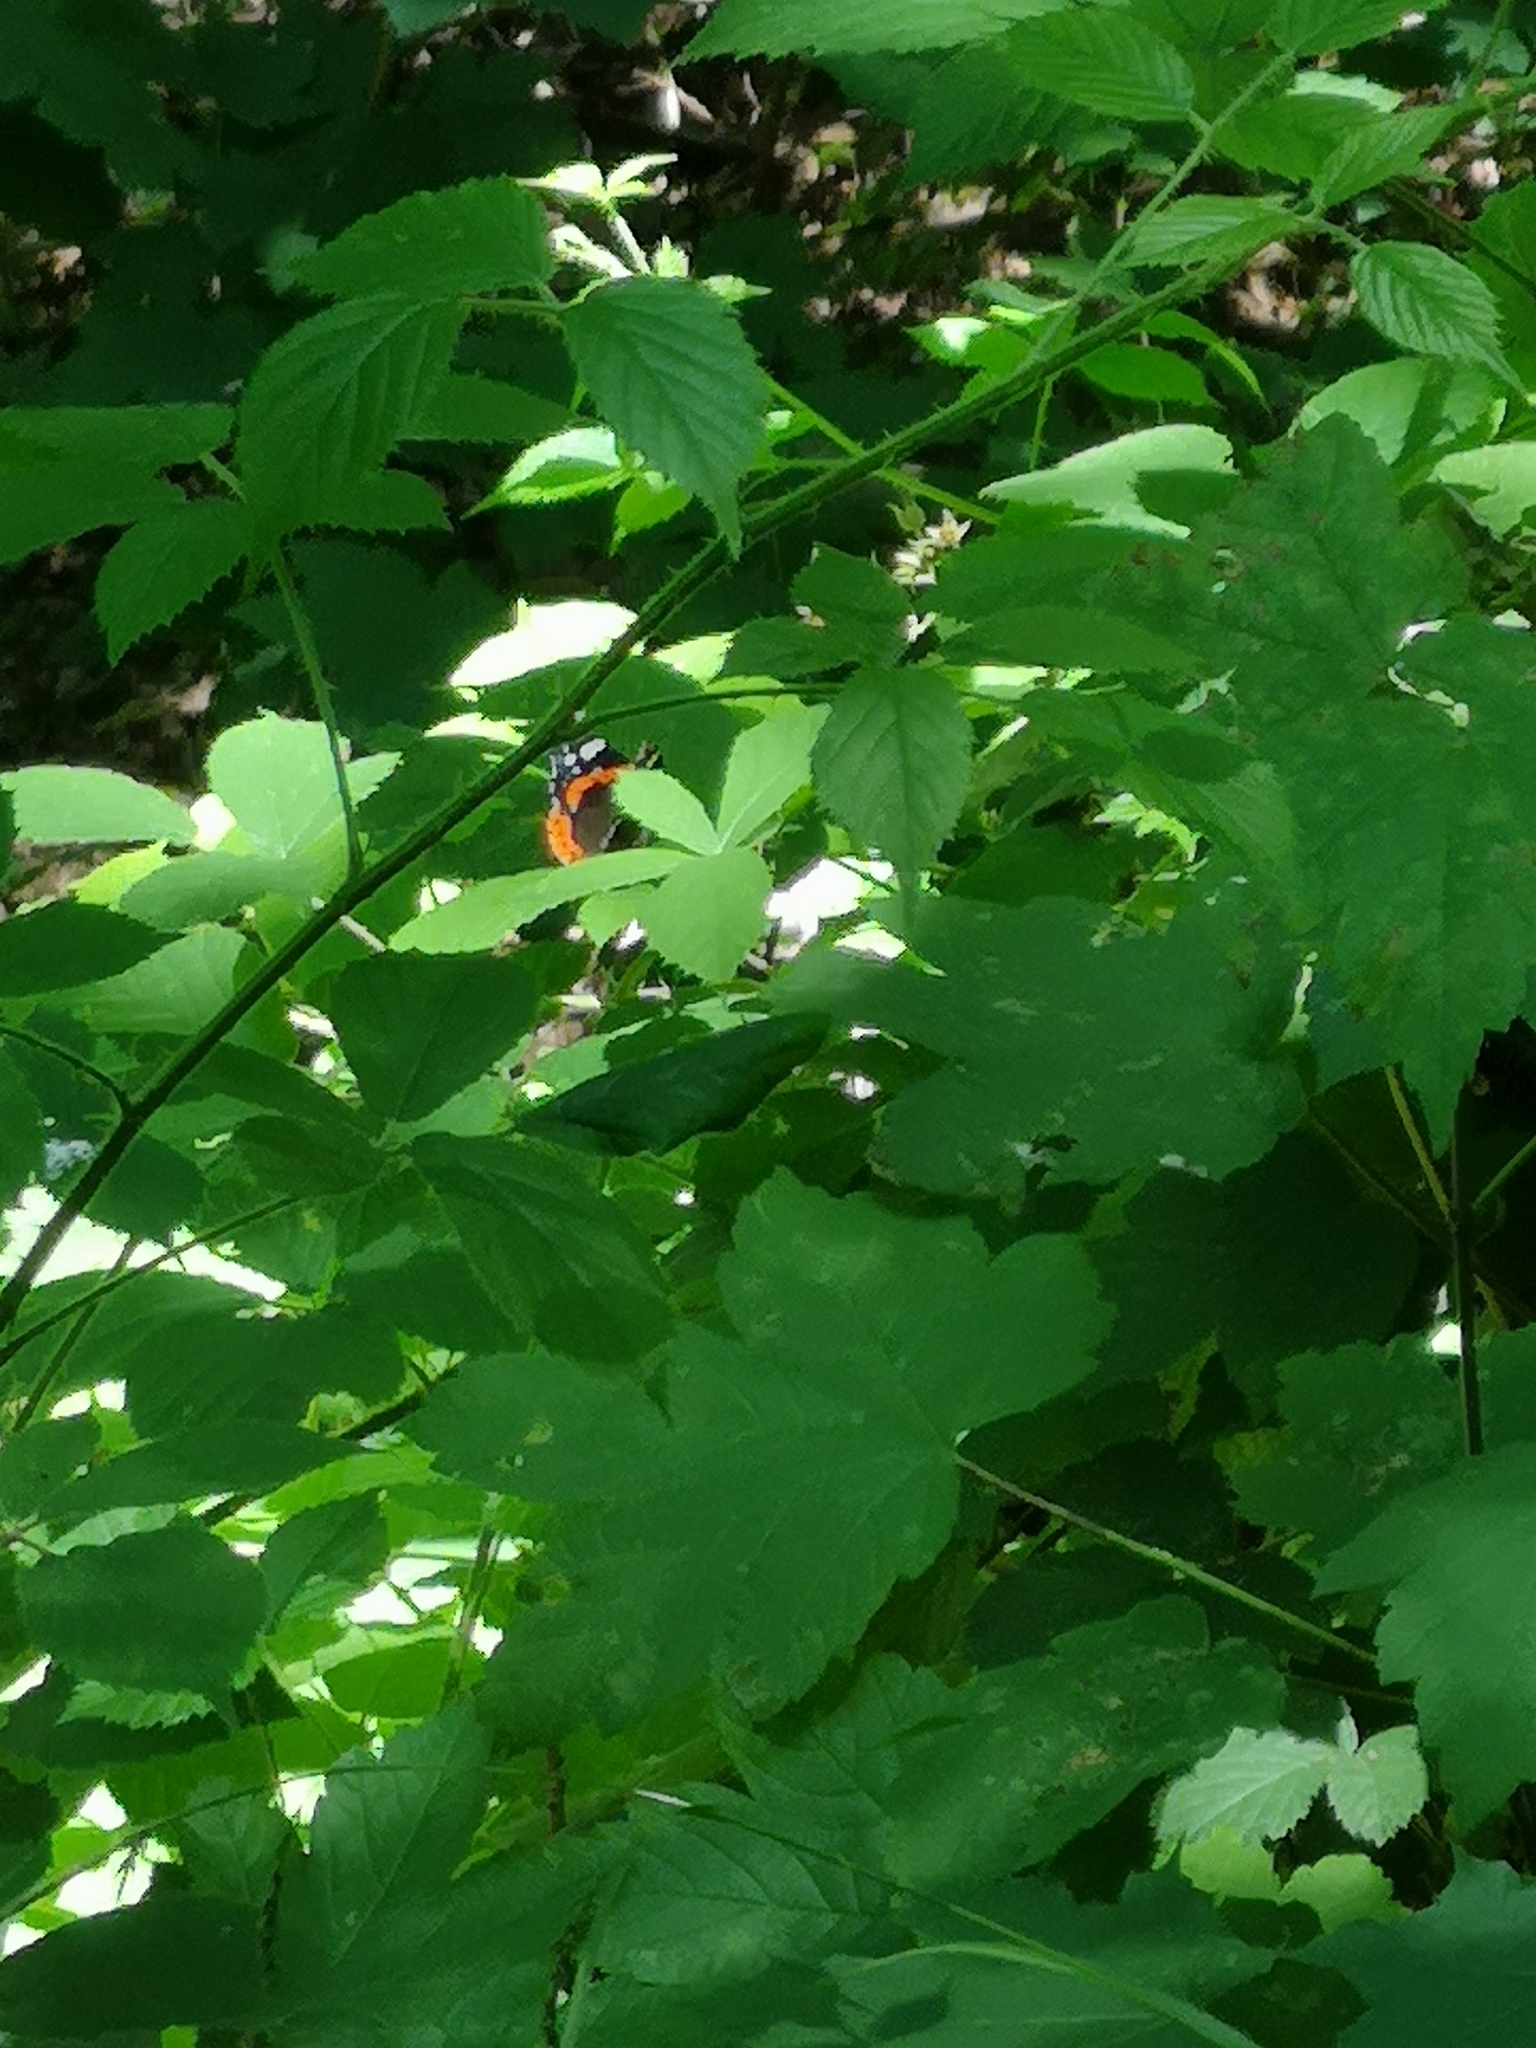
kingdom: Animalia
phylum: Arthropoda
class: Insecta
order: Lepidoptera
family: Nymphalidae
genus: Vanessa
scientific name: Vanessa atalanta
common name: Red admiral
